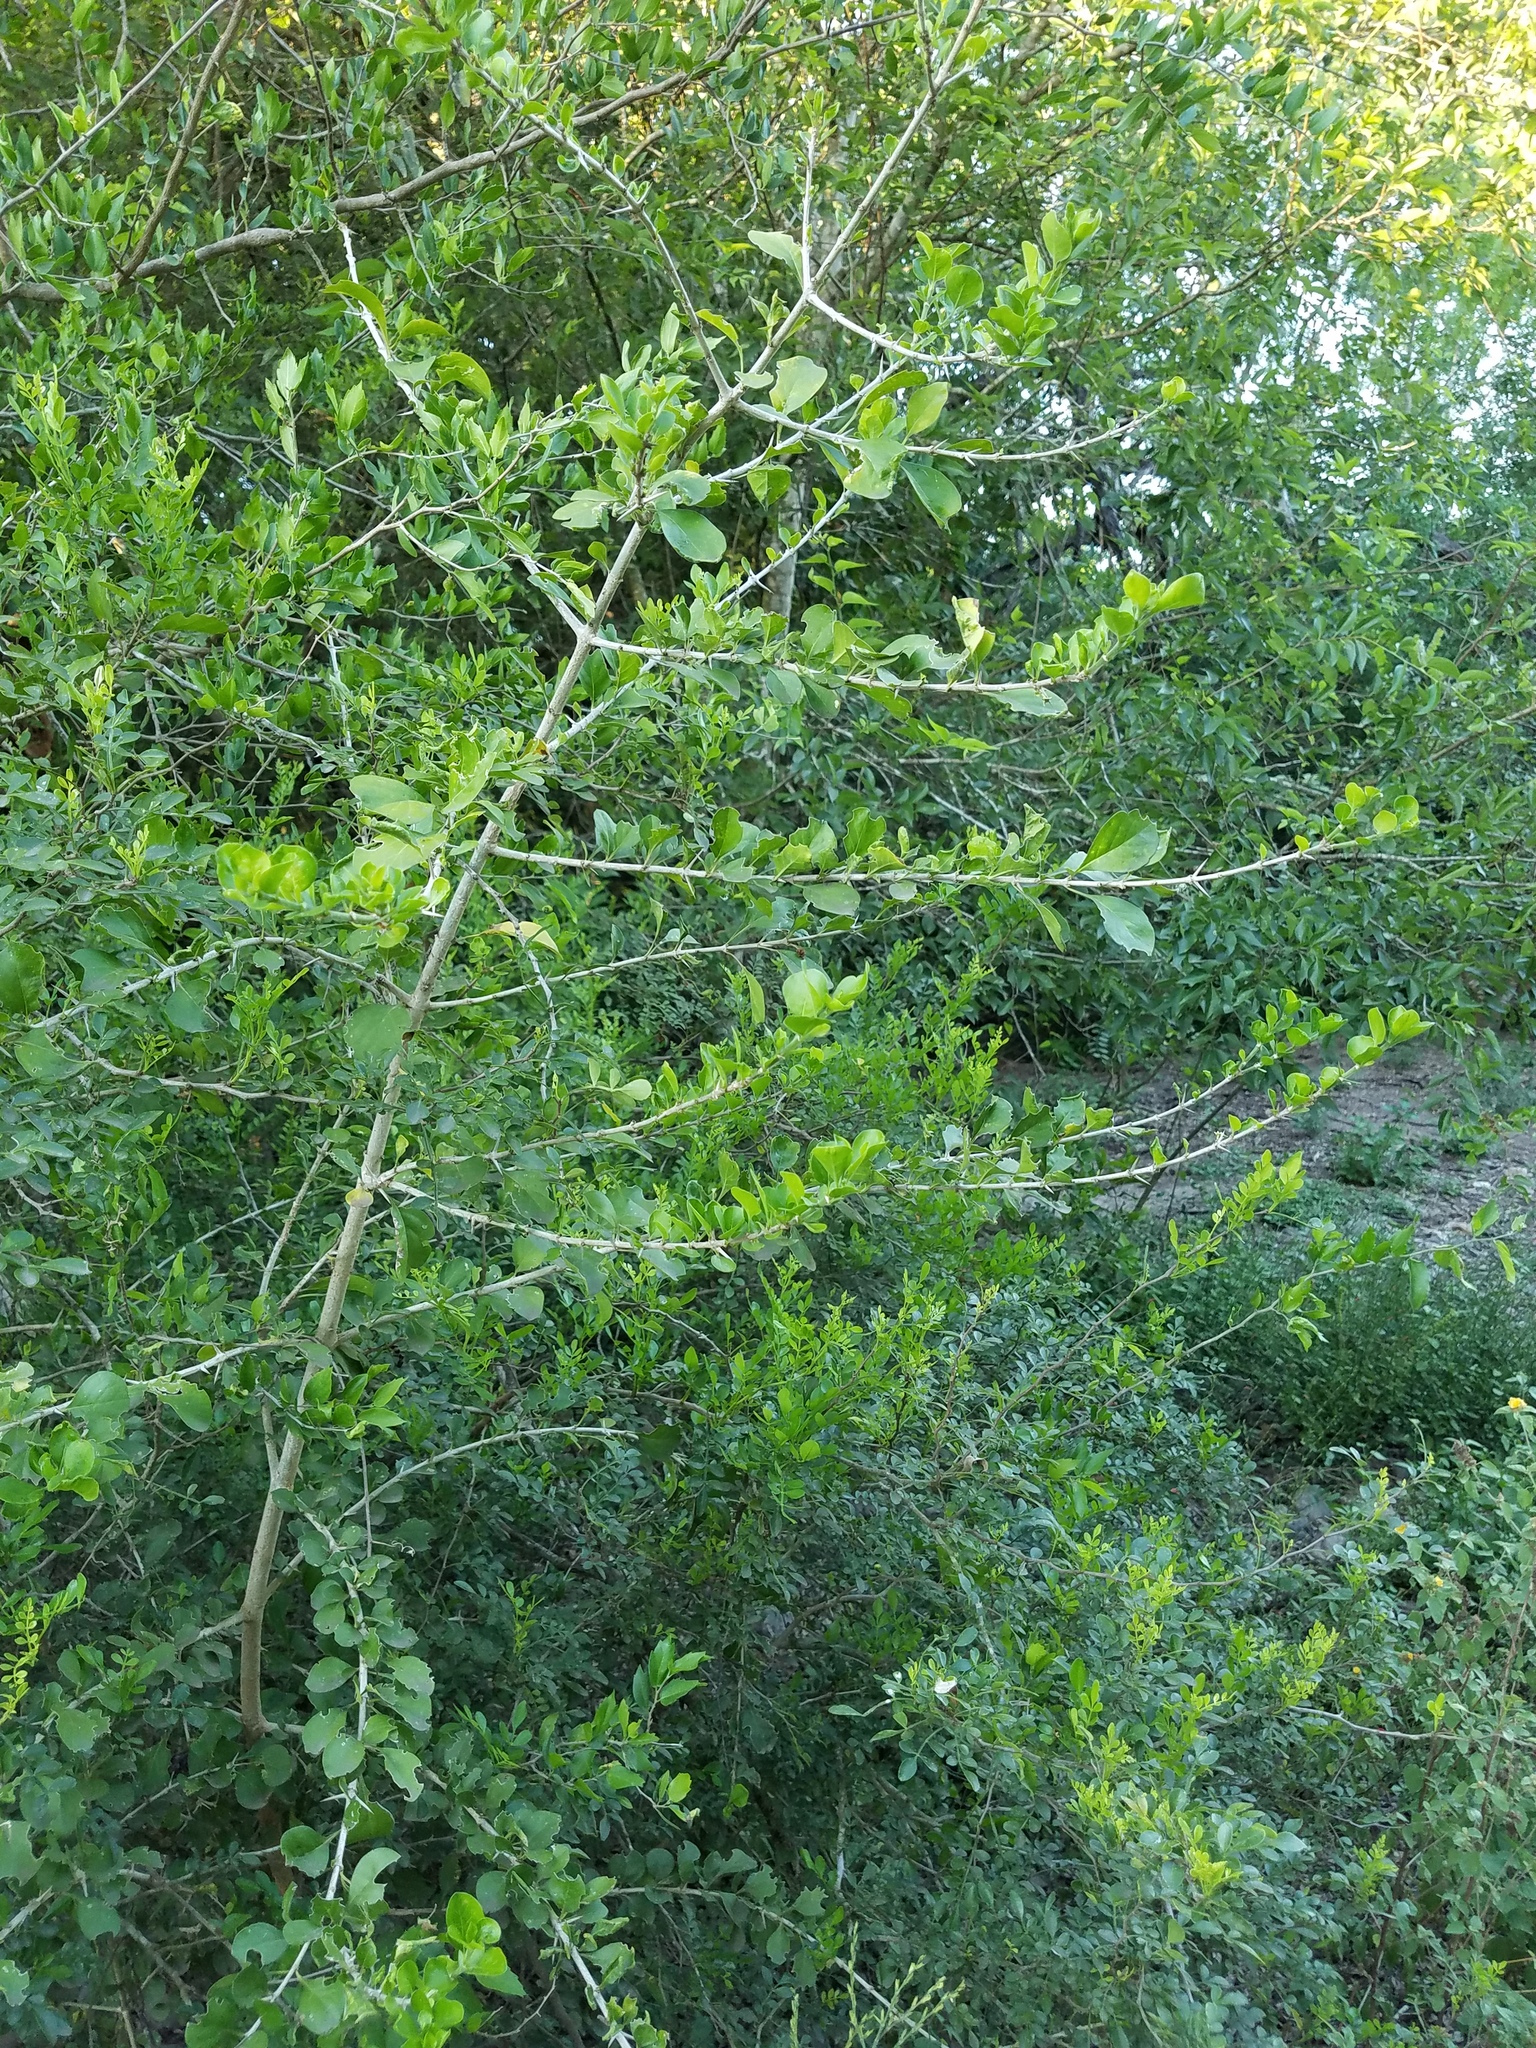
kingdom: Plantae
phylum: Tracheophyta
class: Magnoliopsida
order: Gentianales
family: Rubiaceae
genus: Randia
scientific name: Randia obcordata
